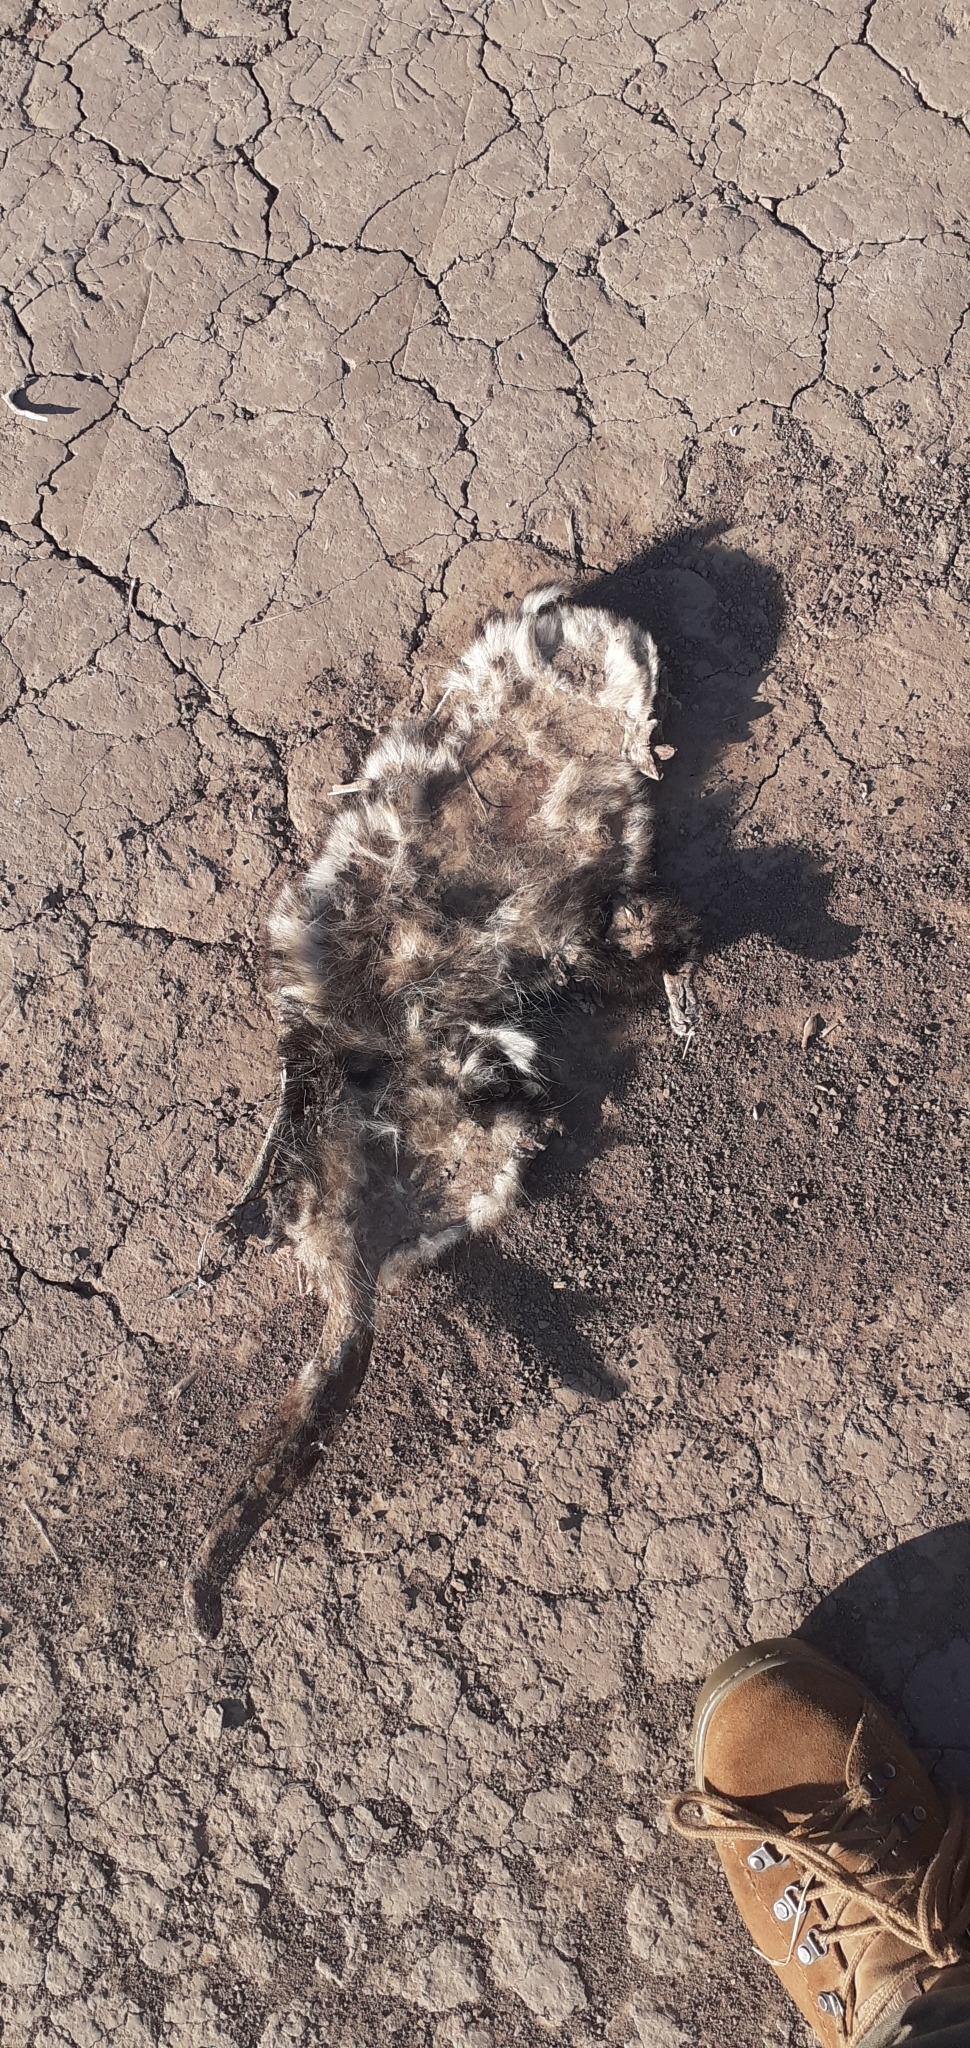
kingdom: Animalia
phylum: Chordata
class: Mammalia
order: Didelphimorphia
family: Didelphidae
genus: Didelphis
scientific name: Didelphis albiventris
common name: White-eared opossum
